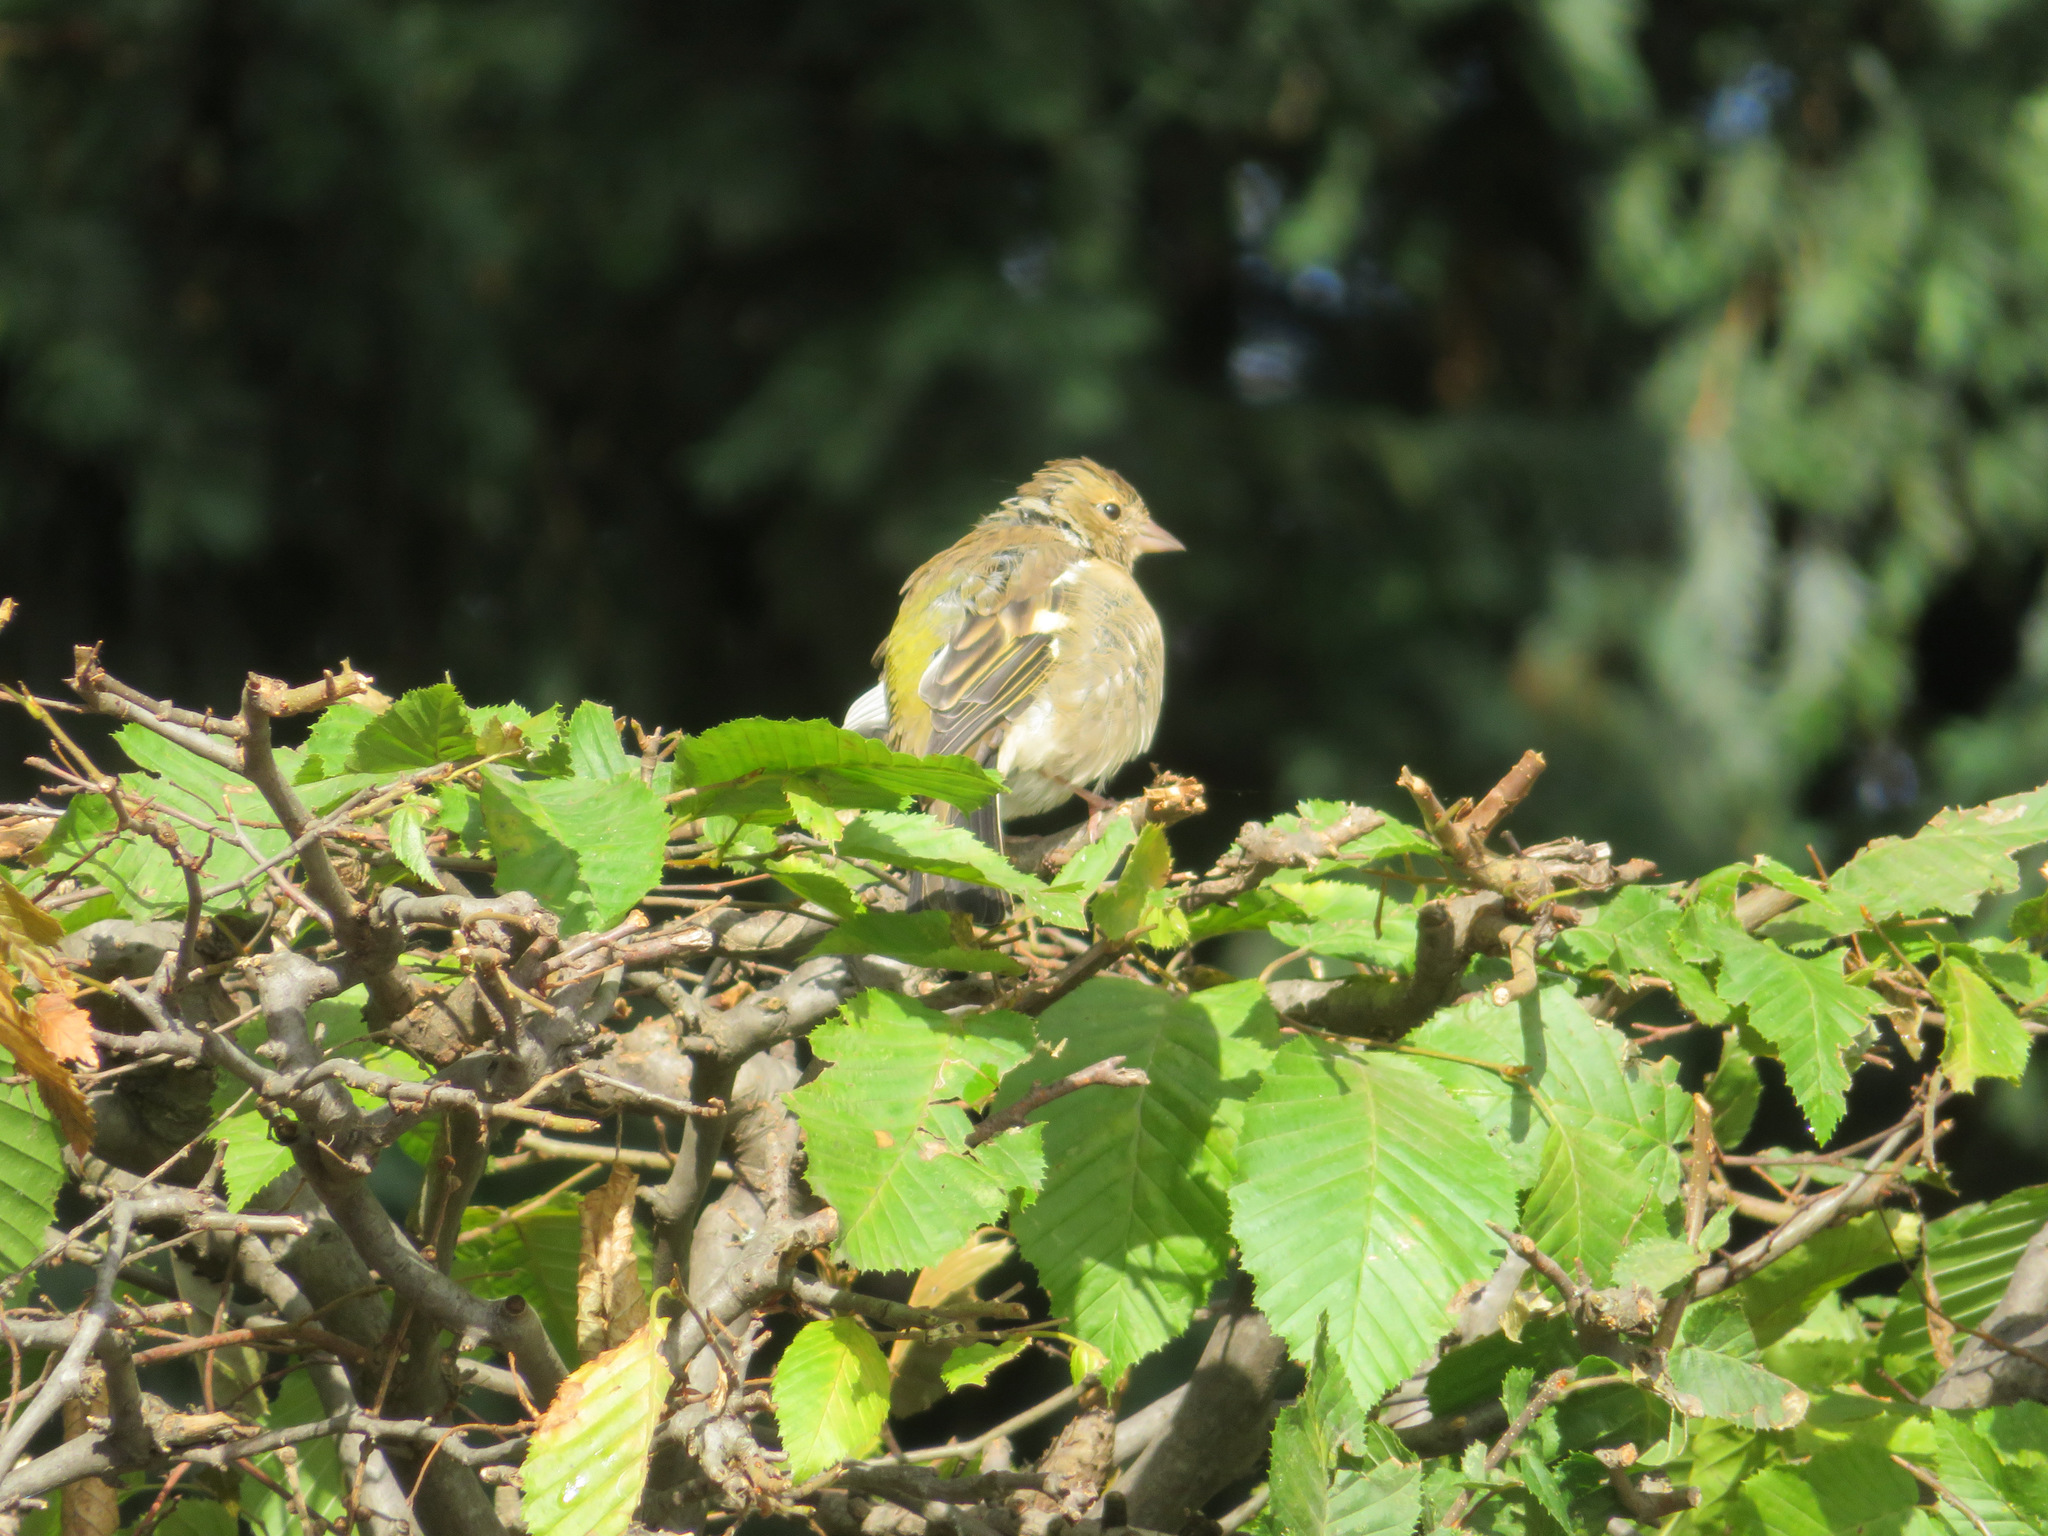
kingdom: Animalia
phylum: Chordata
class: Aves
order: Passeriformes
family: Fringillidae
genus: Fringilla
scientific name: Fringilla coelebs
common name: Common chaffinch
